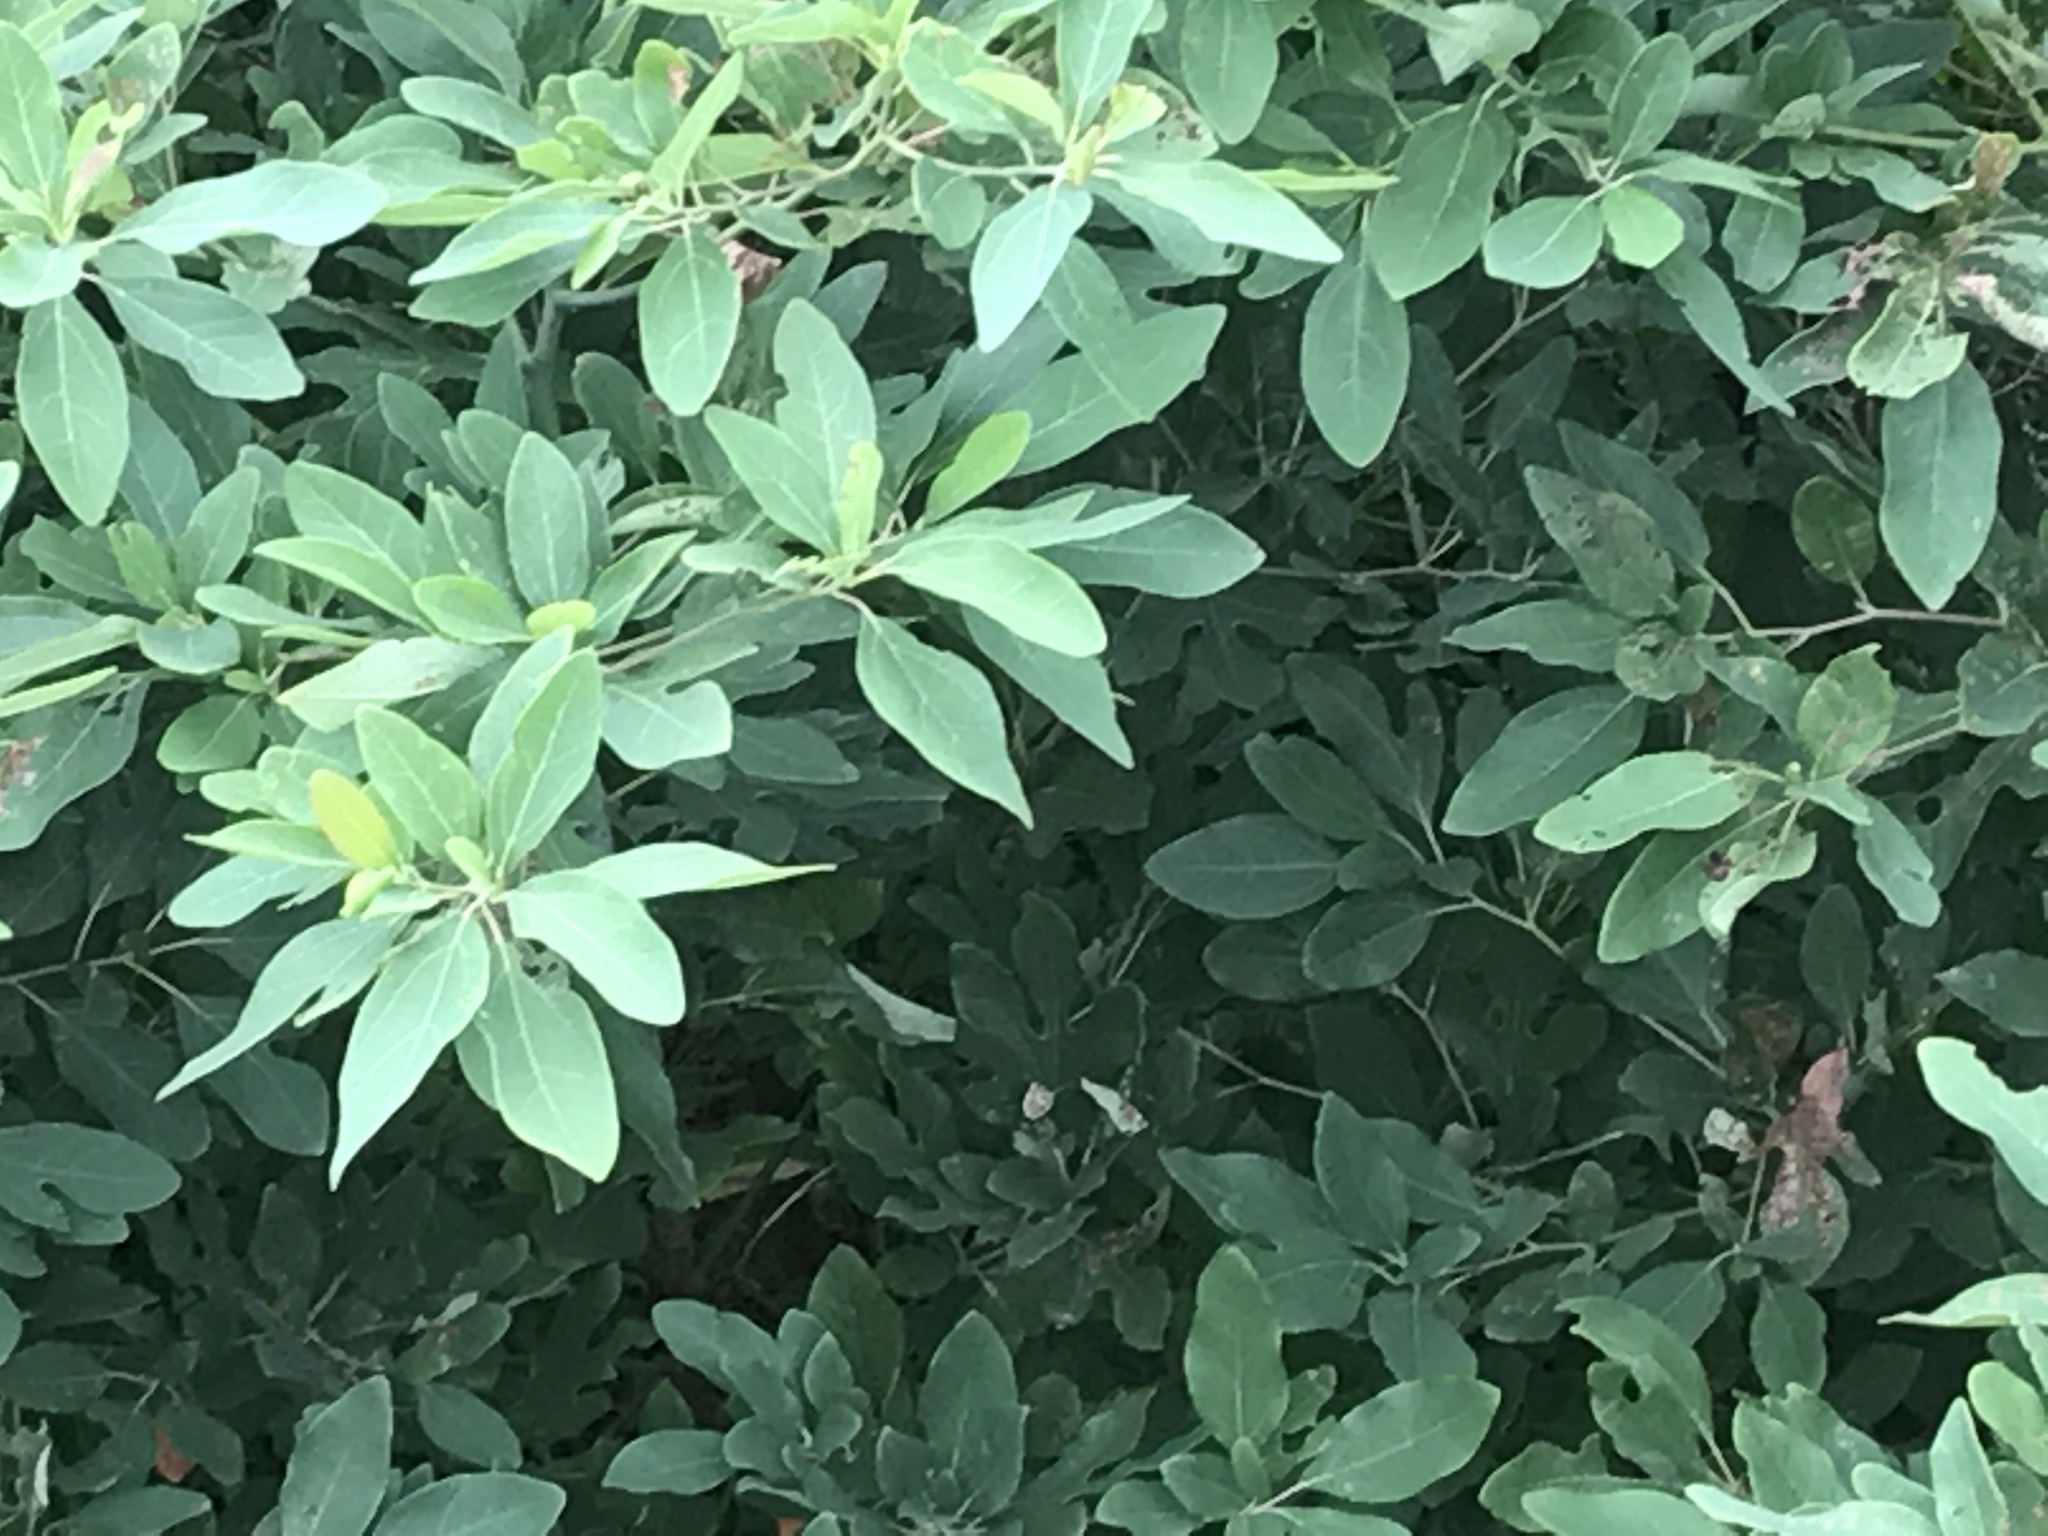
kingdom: Plantae
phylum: Tracheophyta
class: Magnoliopsida
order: Laurales
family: Lauraceae
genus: Sassafras
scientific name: Sassafras albidum
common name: Sassafras
